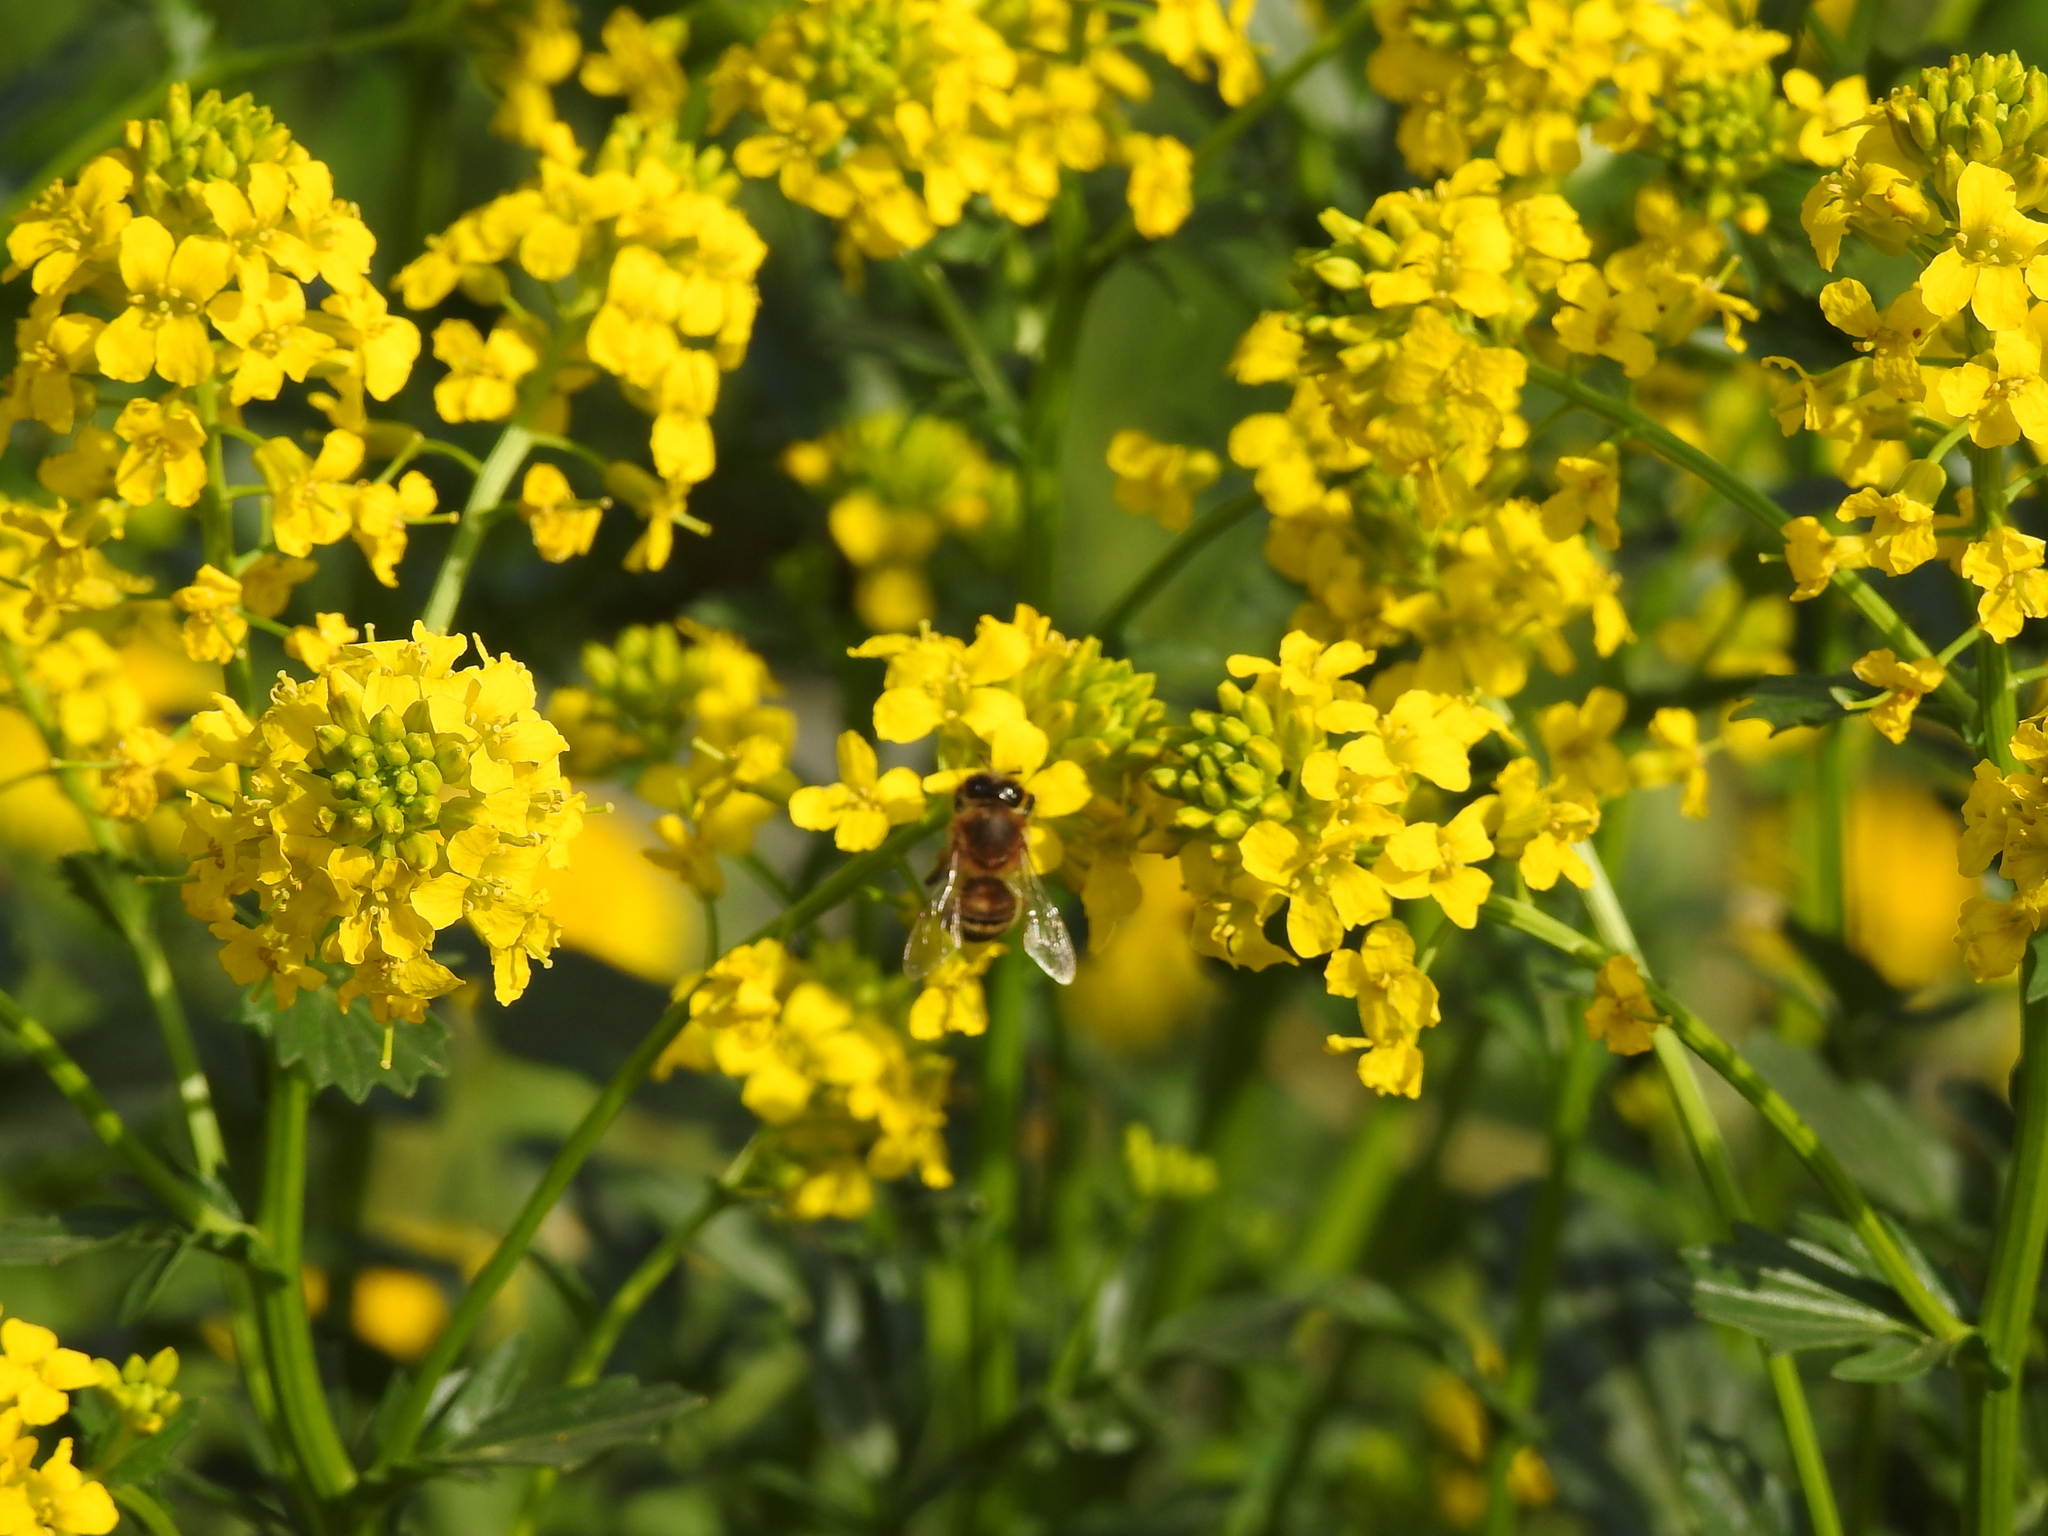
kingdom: Animalia
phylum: Arthropoda
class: Insecta
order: Hymenoptera
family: Apidae
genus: Apis
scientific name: Apis mellifera
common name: Honey bee
